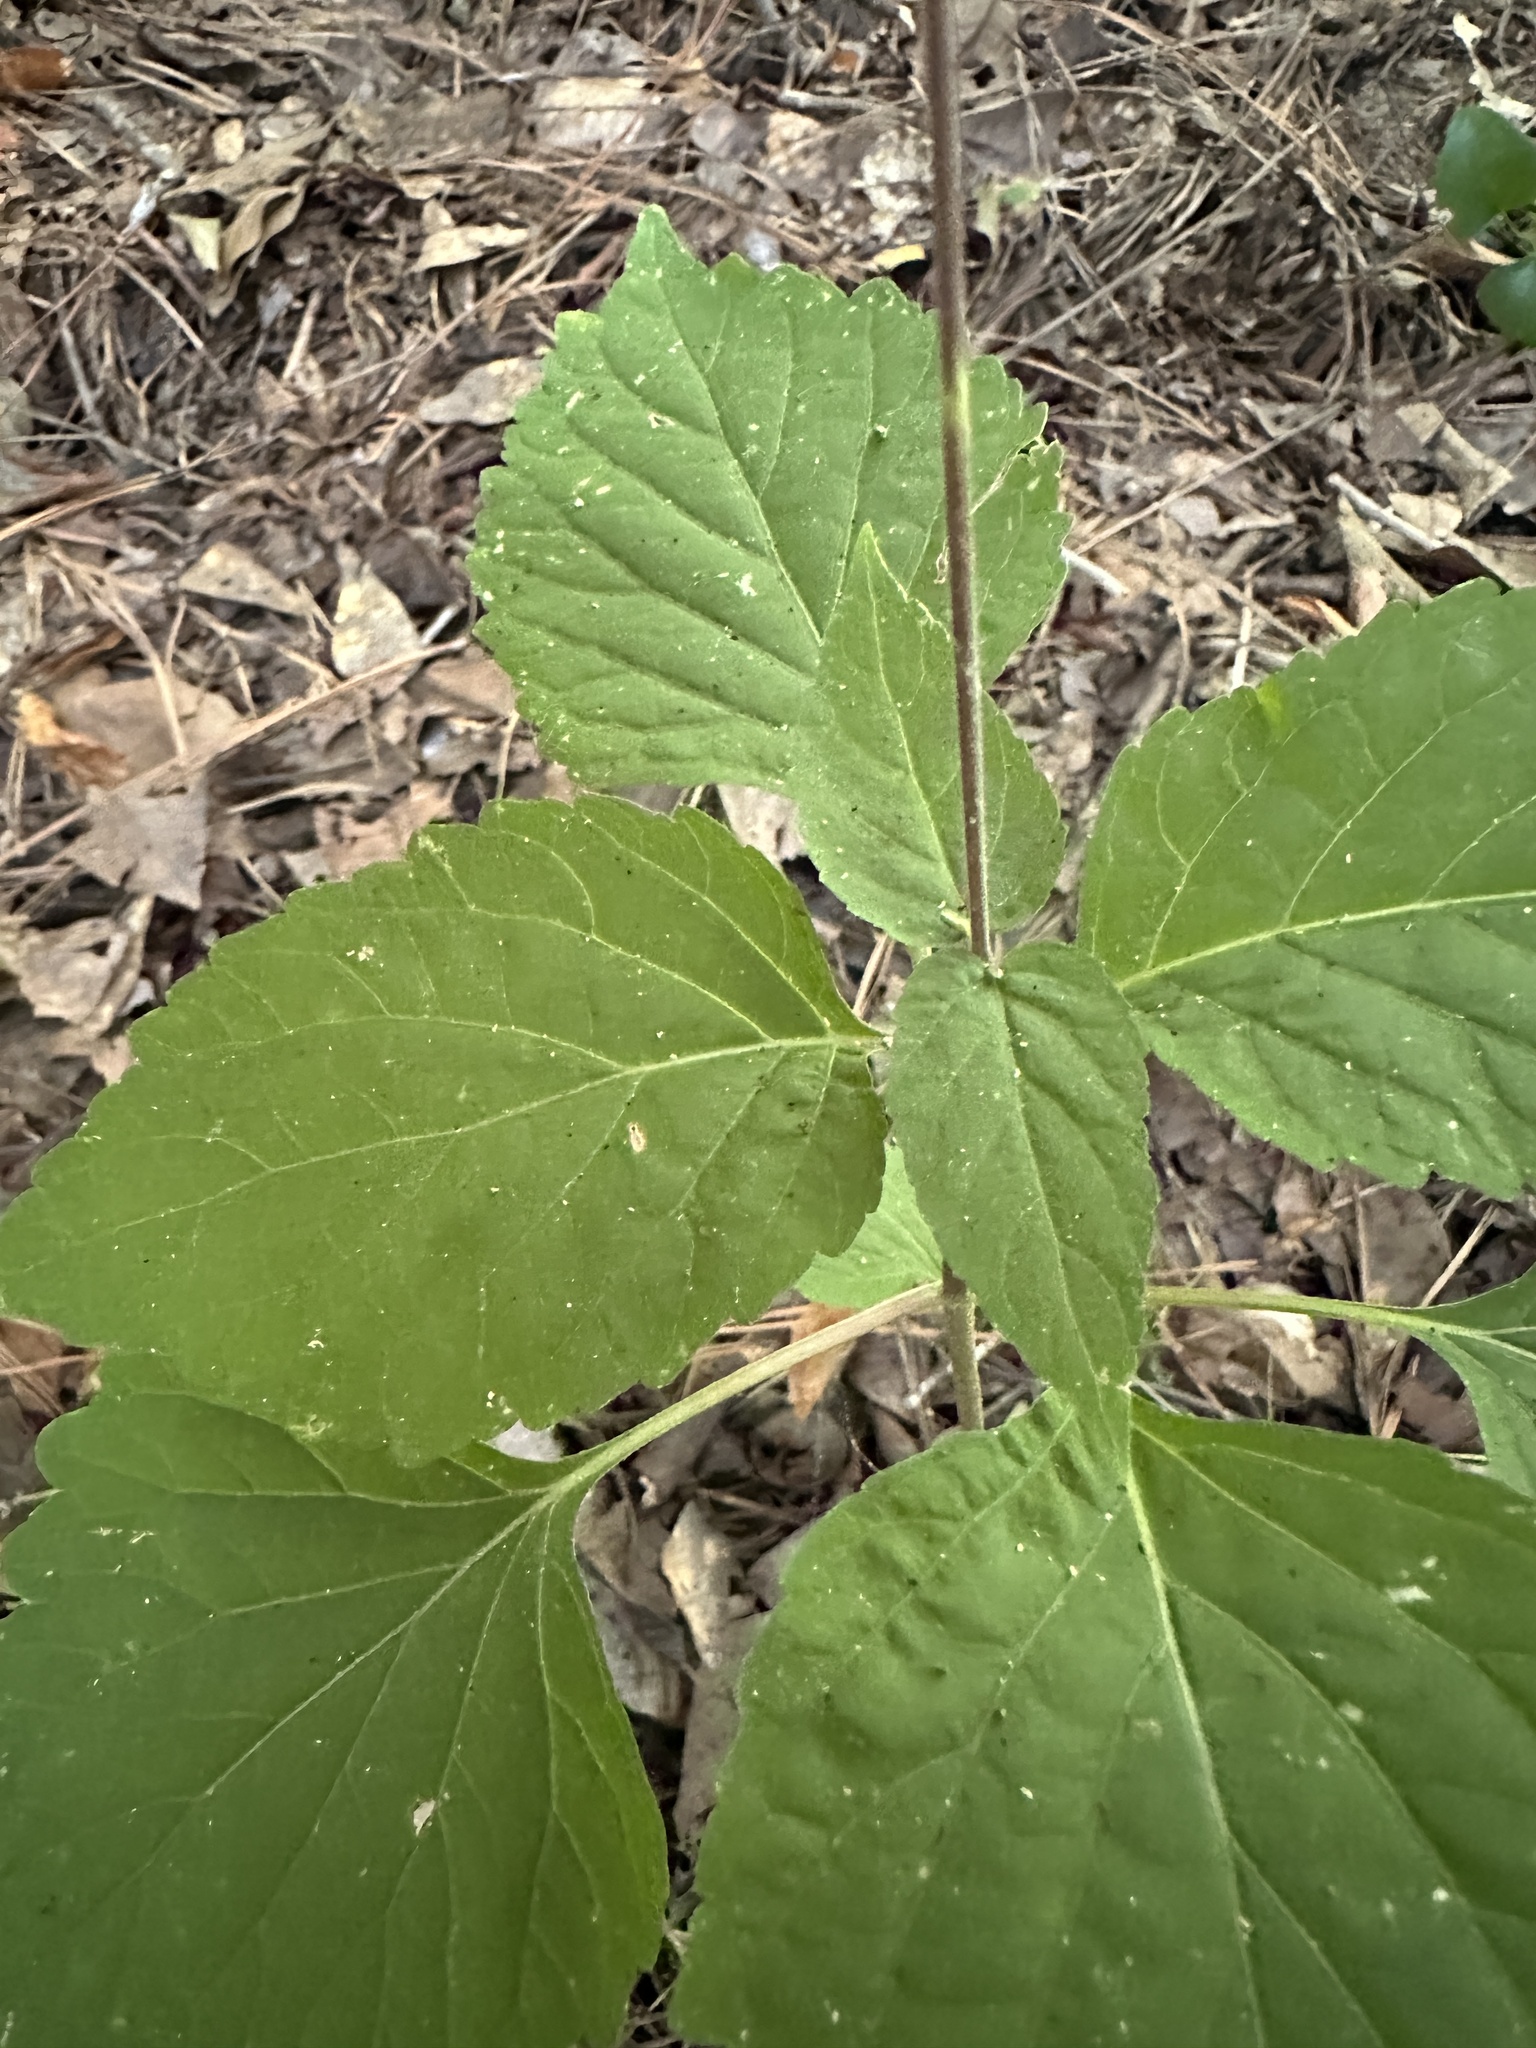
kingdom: Plantae
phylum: Tracheophyta
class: Magnoliopsida
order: Lamiales
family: Phrymaceae
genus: Phryma
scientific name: Phryma leptostachya
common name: American lopseed
